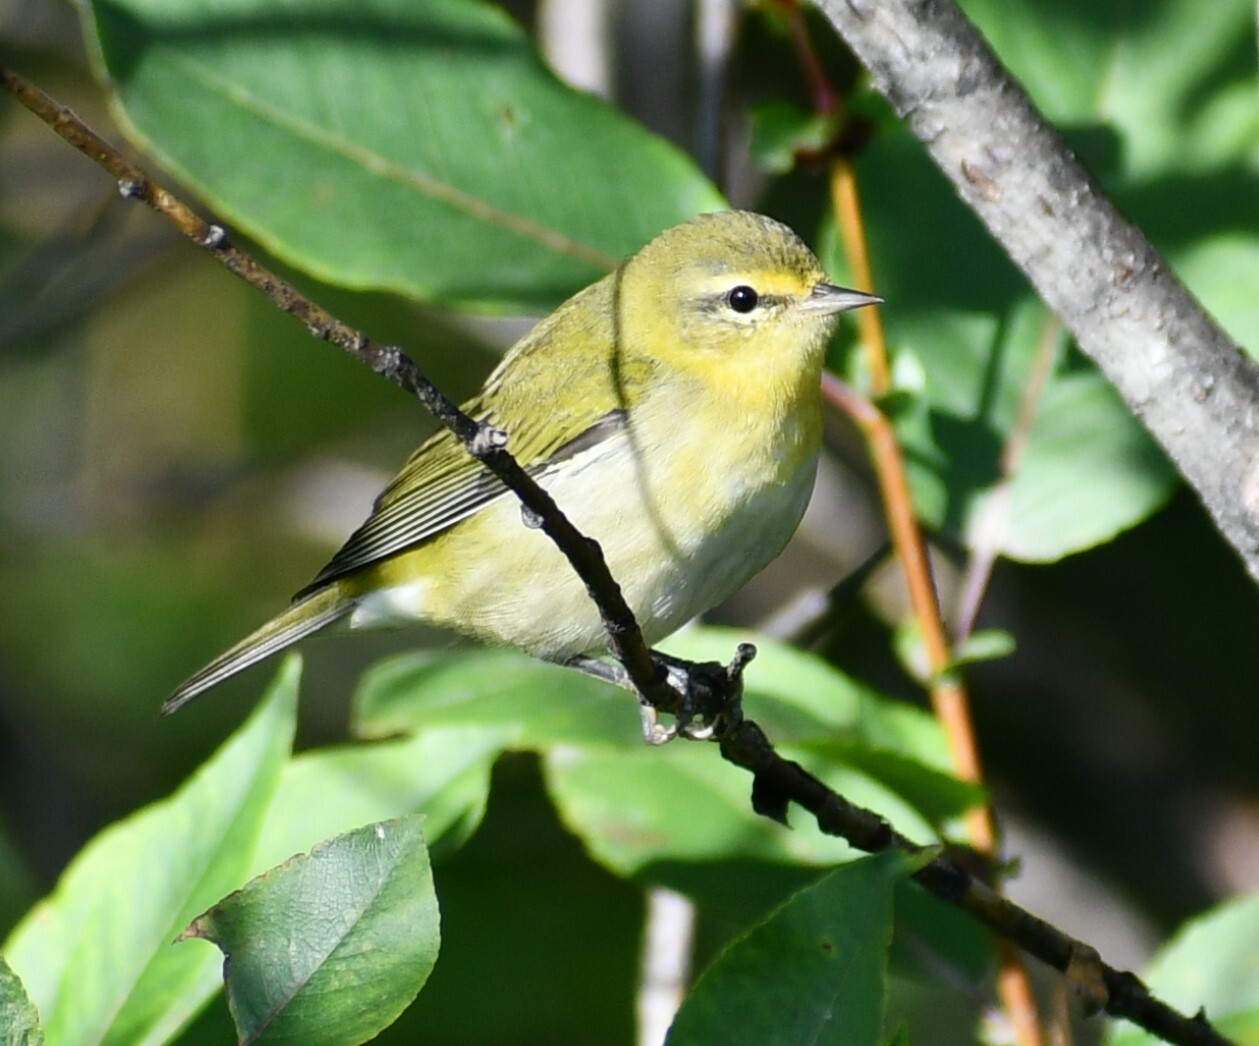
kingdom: Animalia
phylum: Chordata
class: Aves
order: Passeriformes
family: Parulidae
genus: Leiothlypis
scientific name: Leiothlypis peregrina
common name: Tennessee warbler
